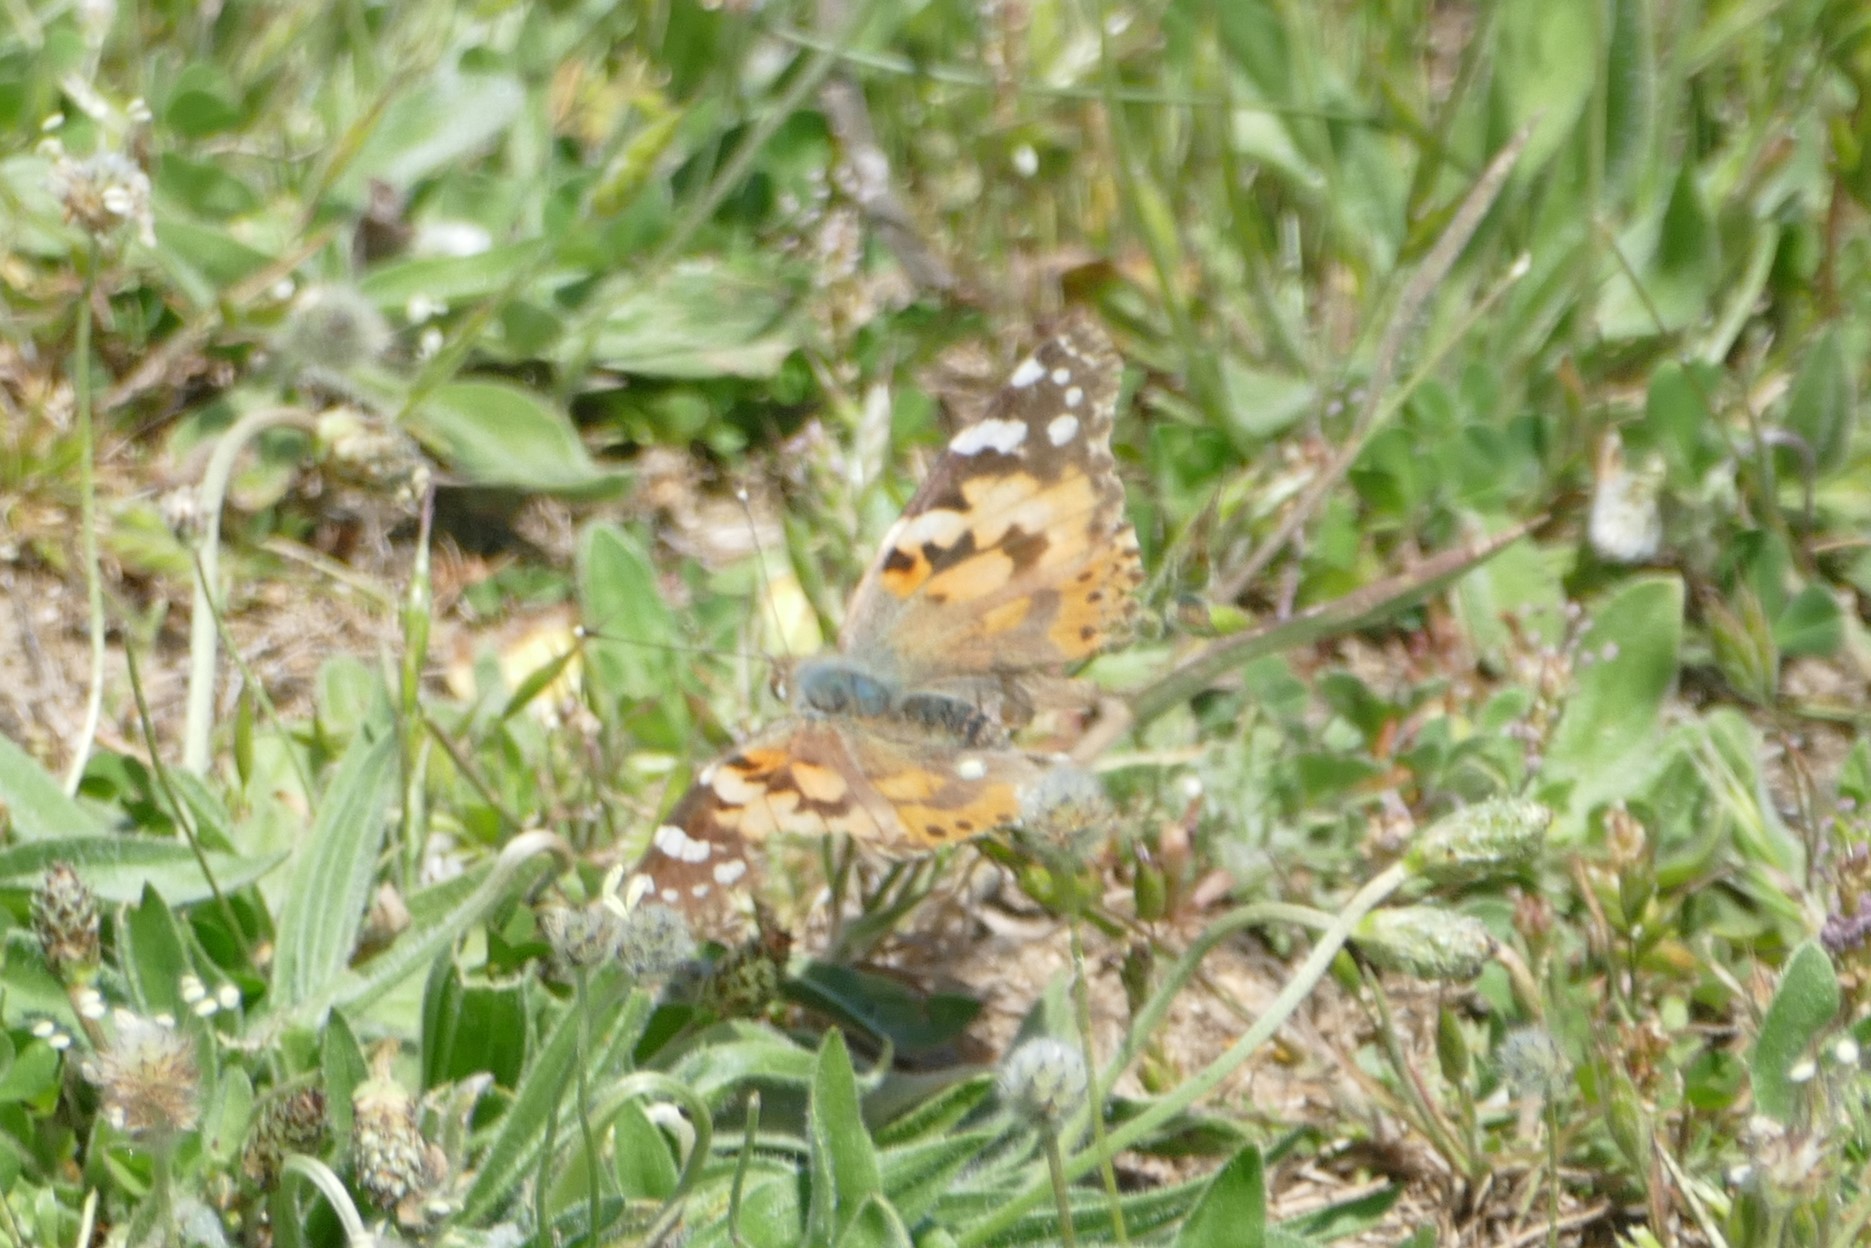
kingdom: Animalia
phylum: Arthropoda
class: Insecta
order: Lepidoptera
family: Nymphalidae
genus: Vanessa
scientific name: Vanessa cardui
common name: Painted lady
